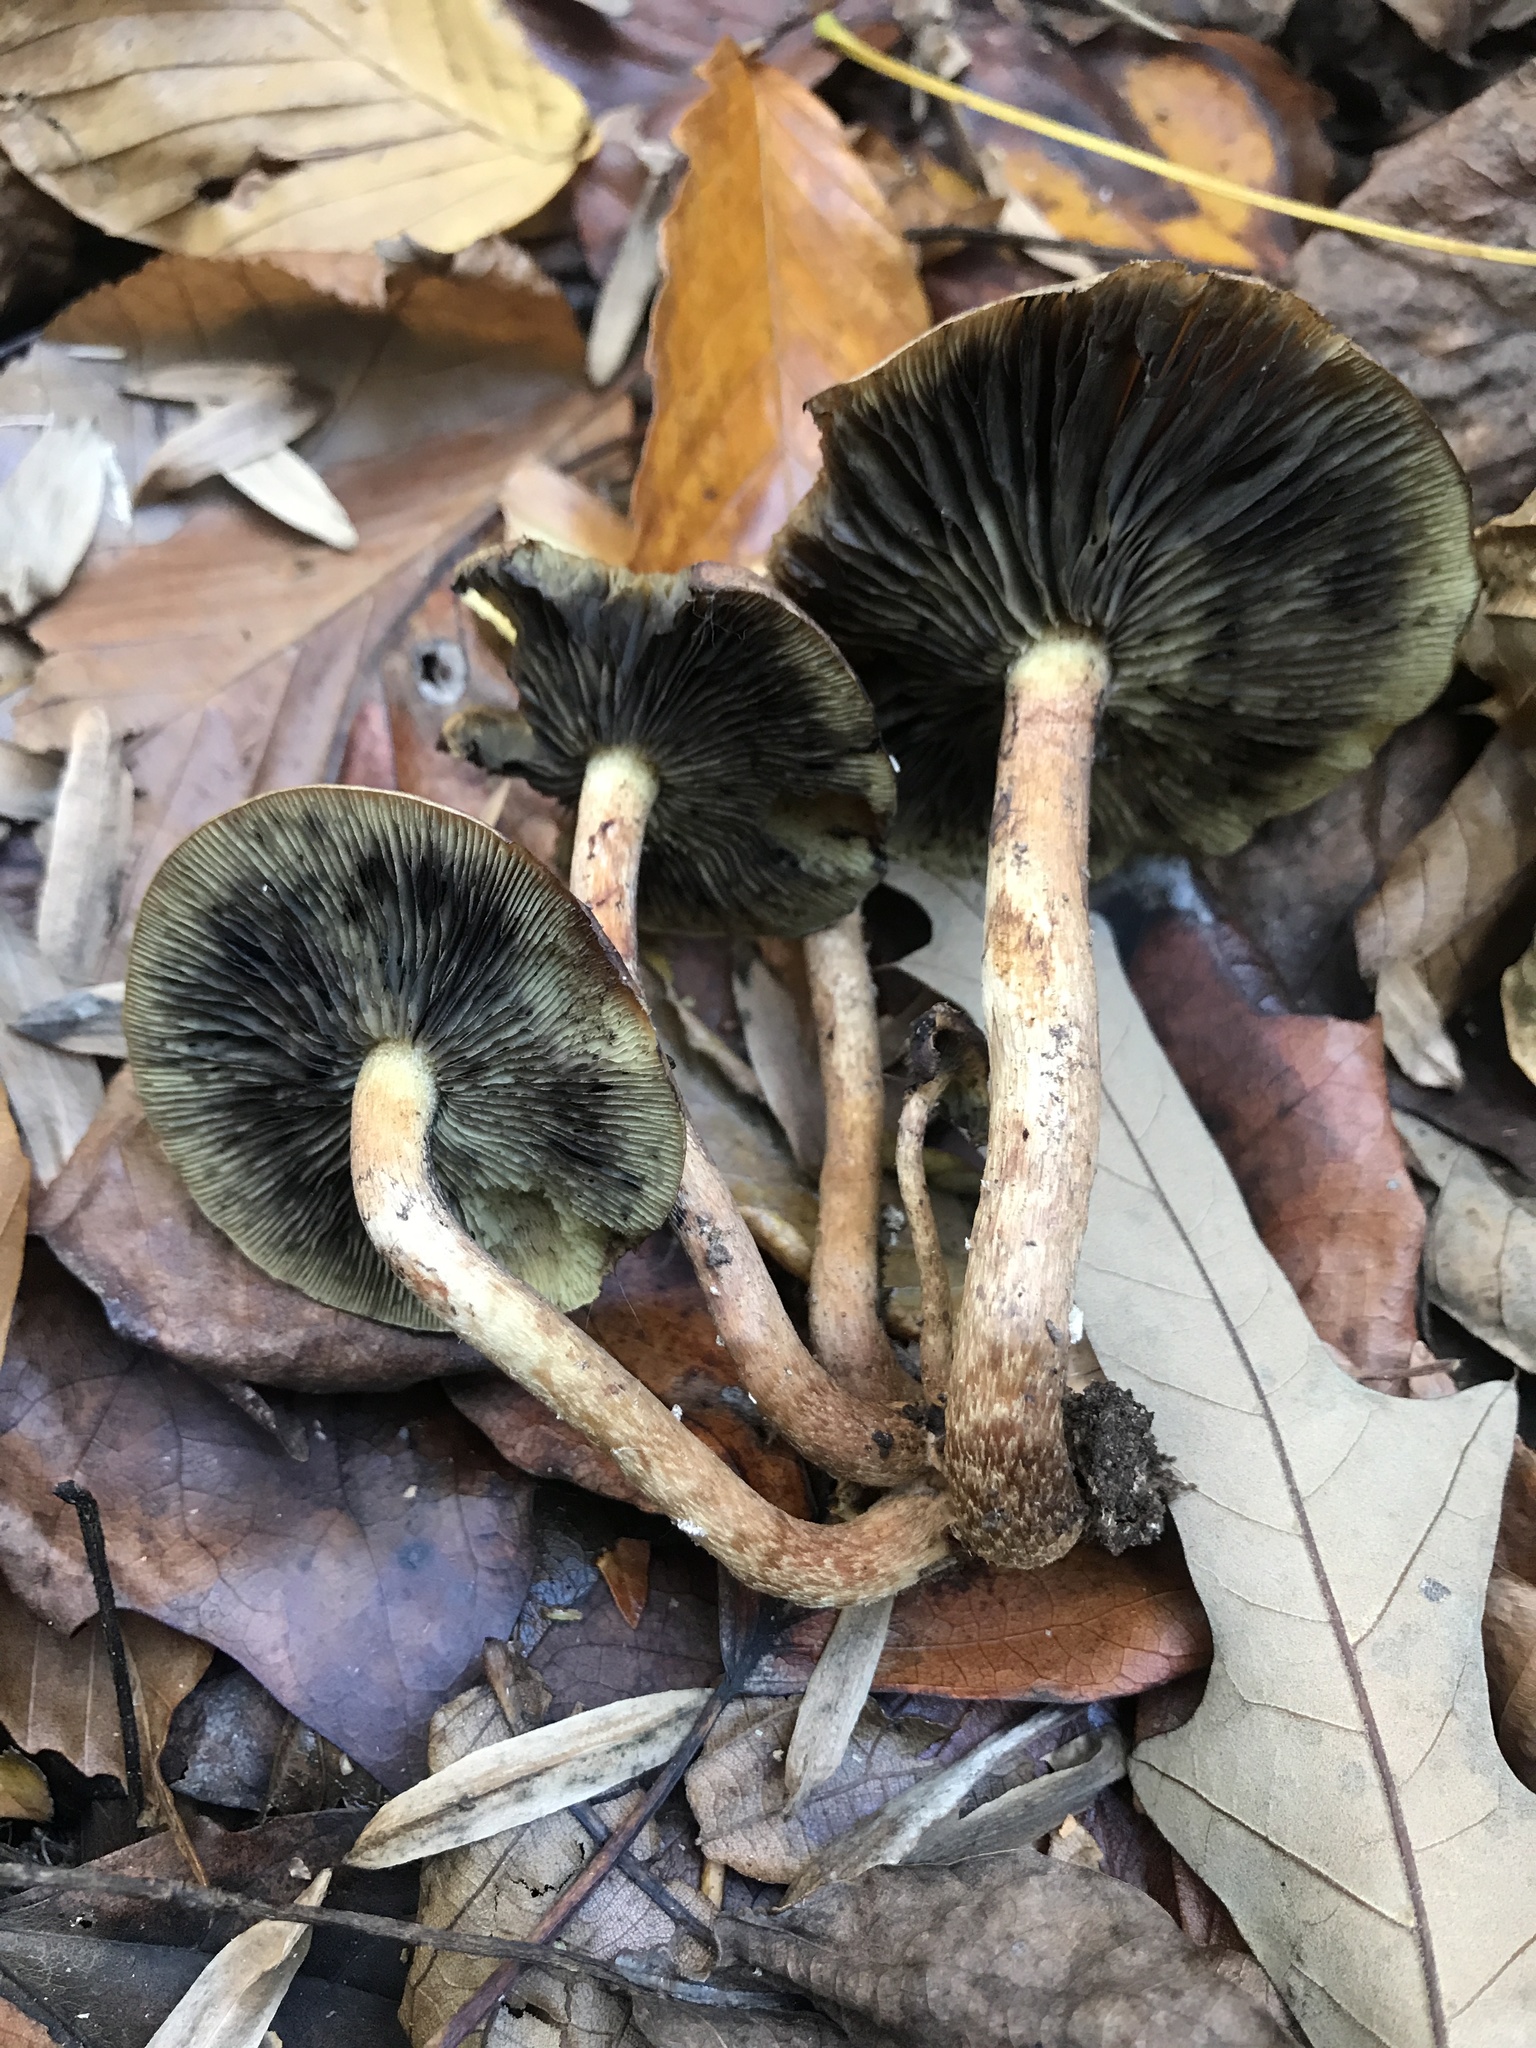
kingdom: Fungi
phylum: Basidiomycota
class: Agaricomycetes
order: Agaricales
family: Strophariaceae
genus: Hypholoma
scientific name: Hypholoma lateritium
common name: Brick caps
